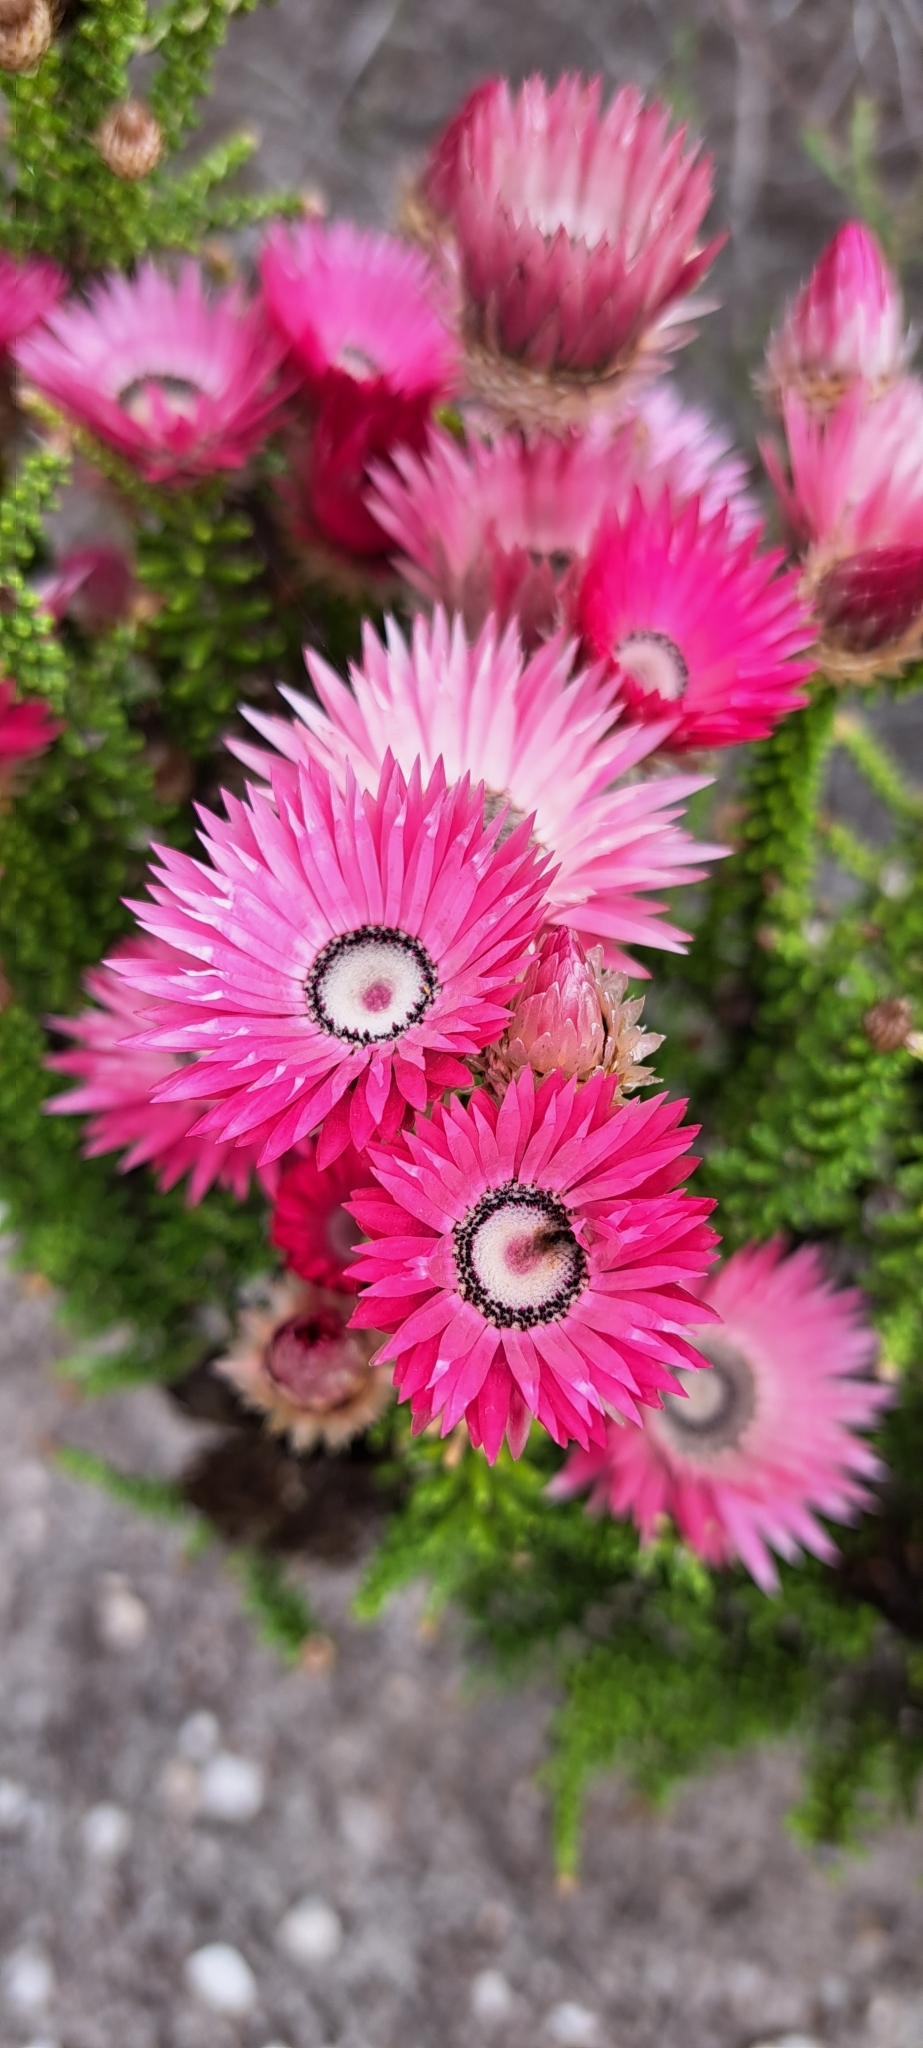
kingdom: Plantae
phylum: Tracheophyta
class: Magnoliopsida
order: Asterales
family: Asteraceae
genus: Phaenocoma
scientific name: Phaenocoma prolifera
